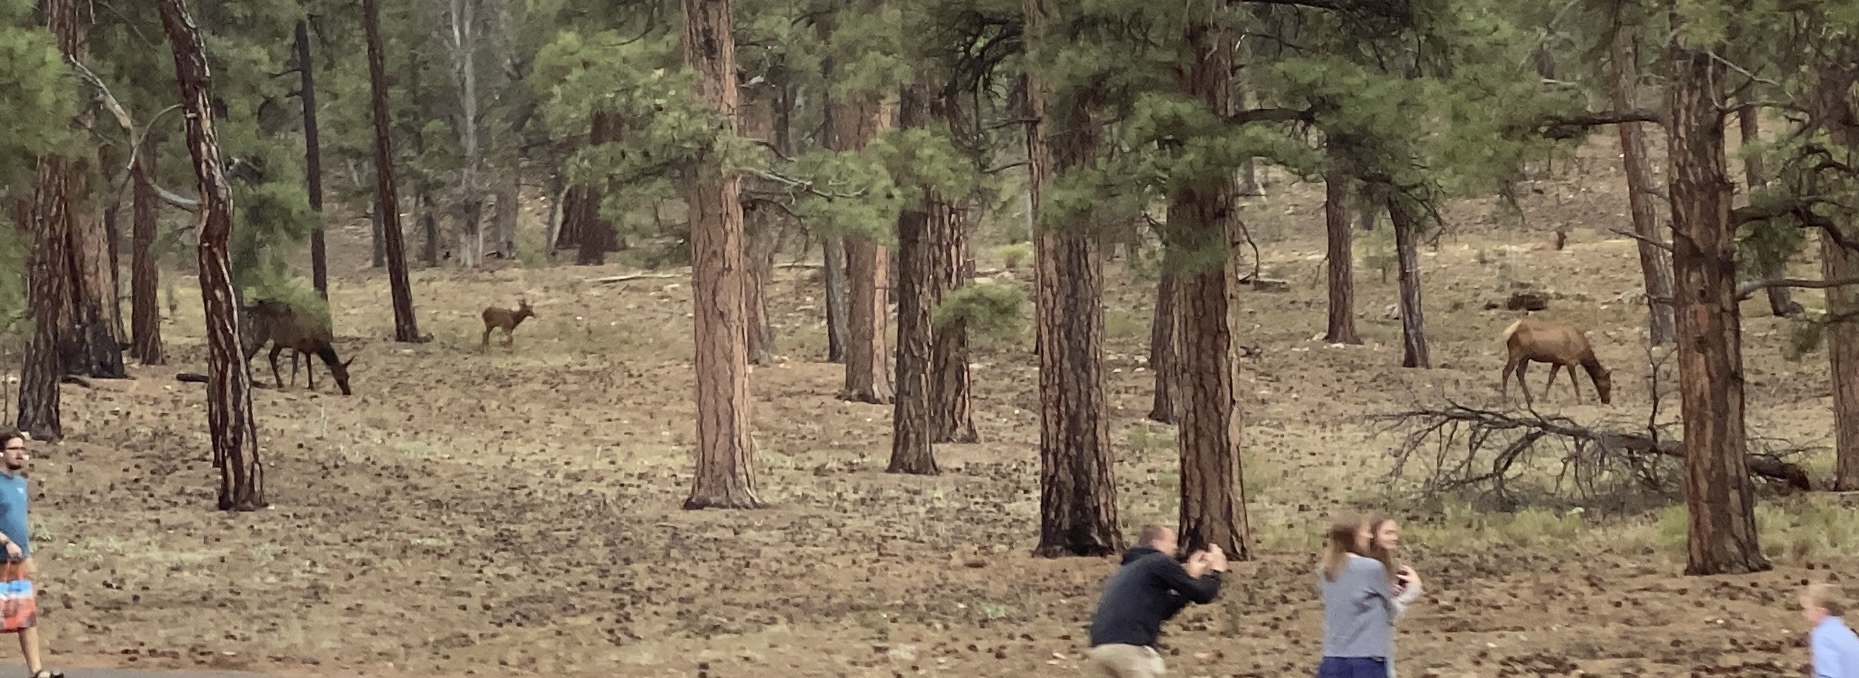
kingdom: Animalia
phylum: Chordata
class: Mammalia
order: Artiodactyla
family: Cervidae
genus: Cervus
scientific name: Cervus elaphus
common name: Red deer
